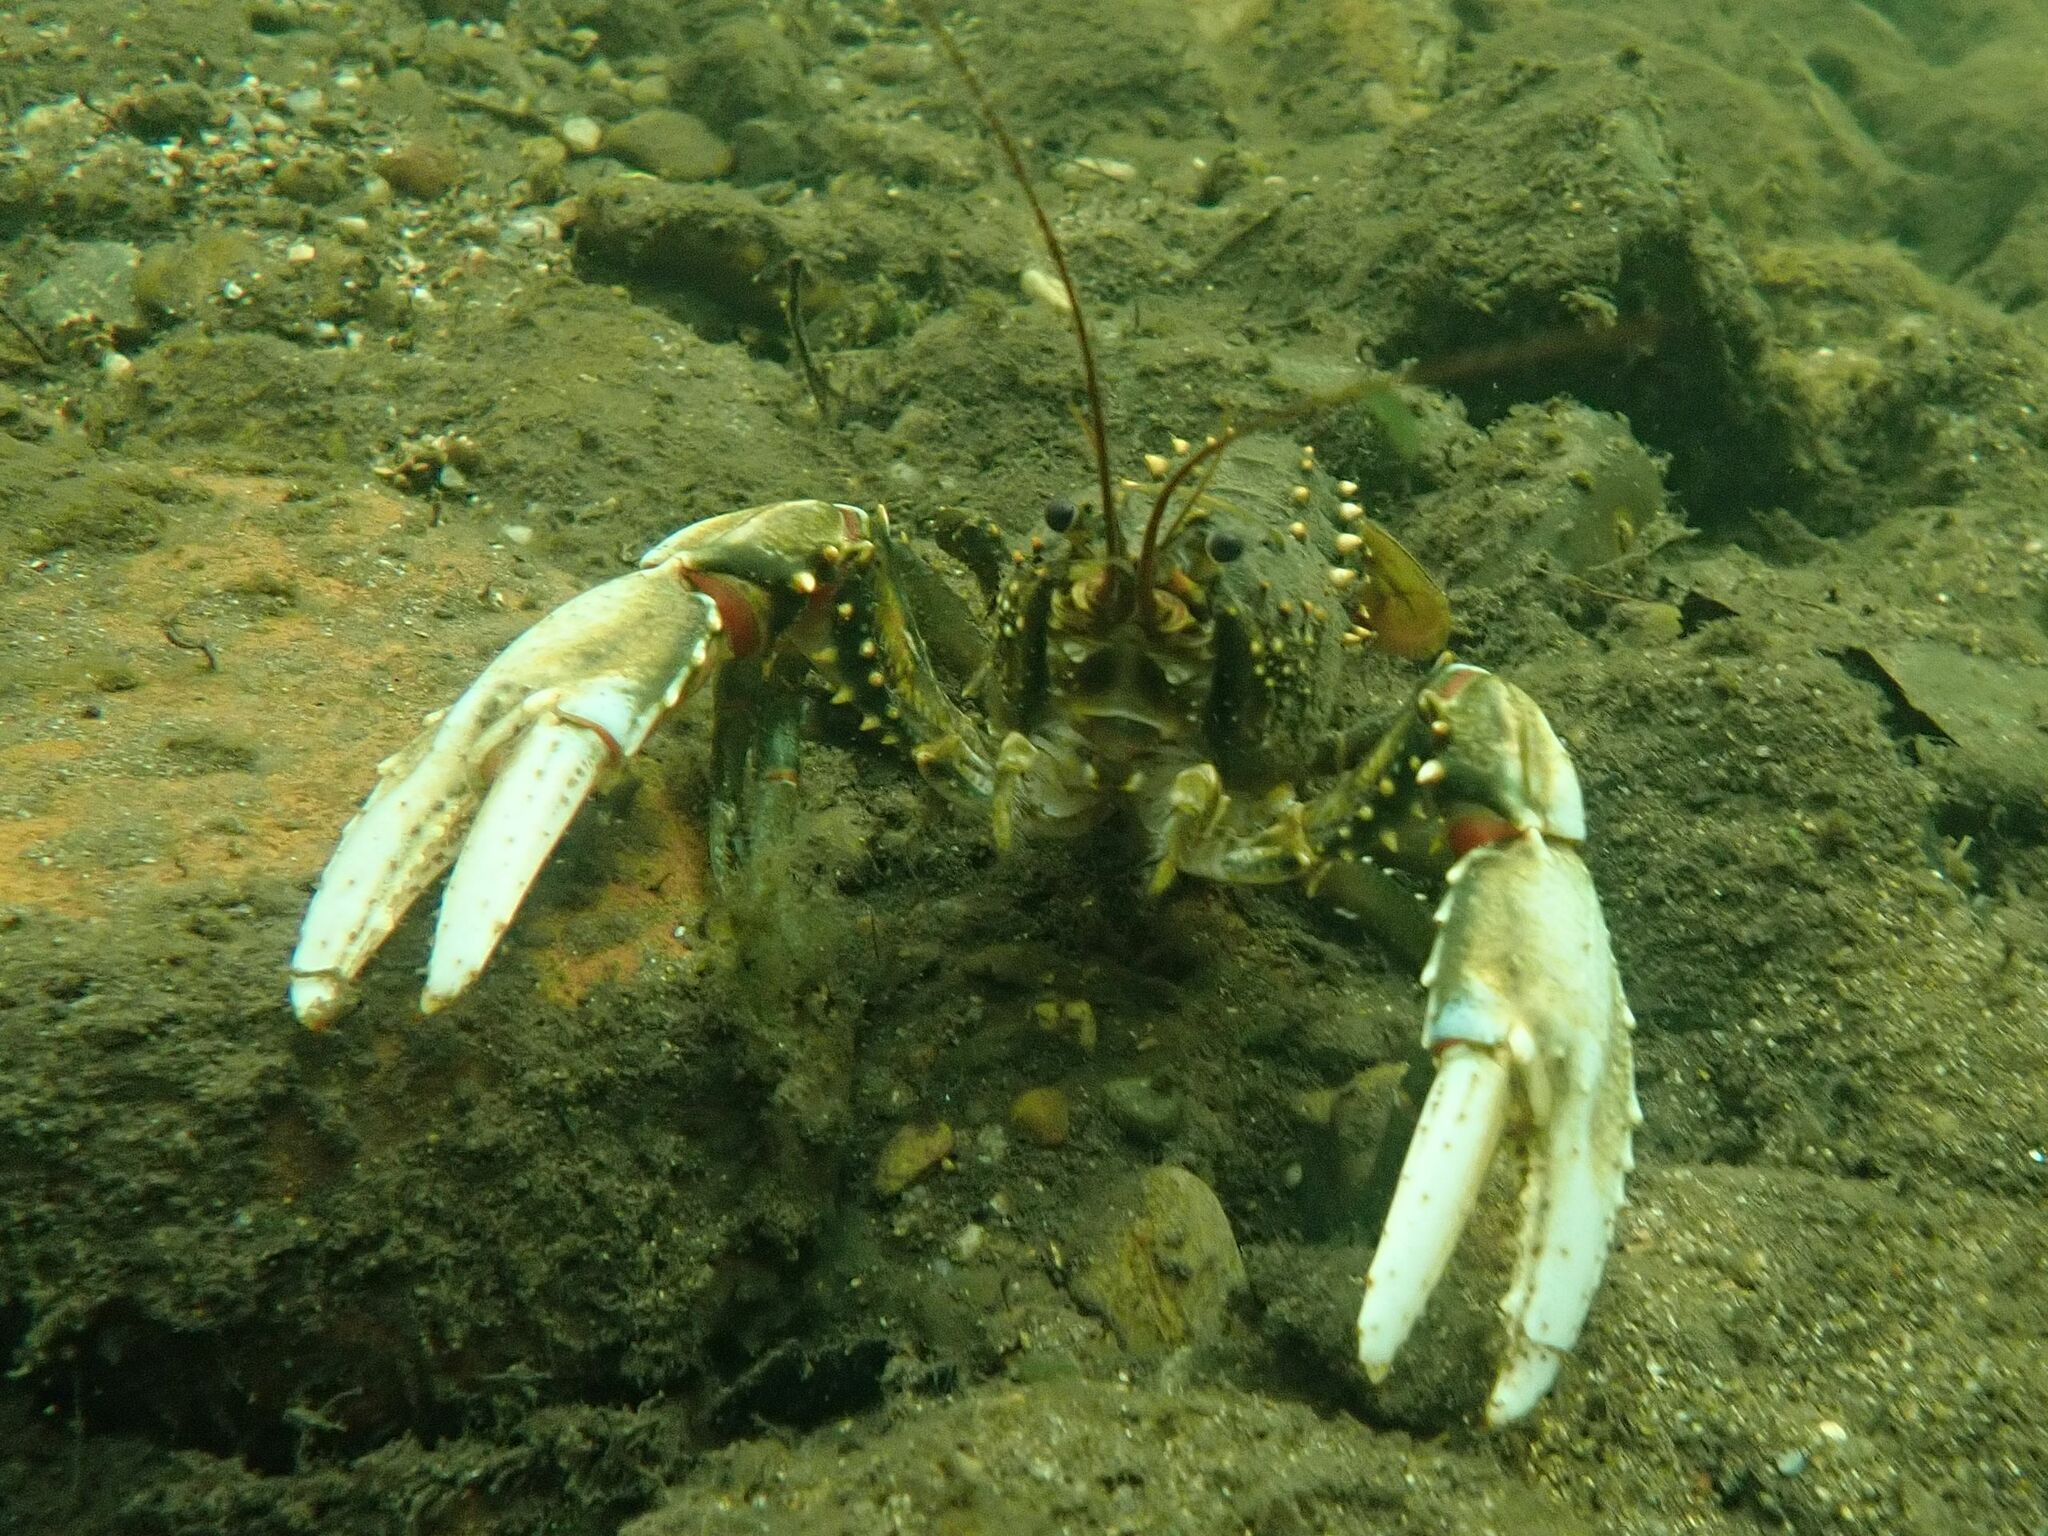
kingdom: Animalia
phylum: Arthropoda
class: Malacostraca
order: Decapoda
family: Parastacidae
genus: Euastacus
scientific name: Euastacus armatus
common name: Murray river crayfish
